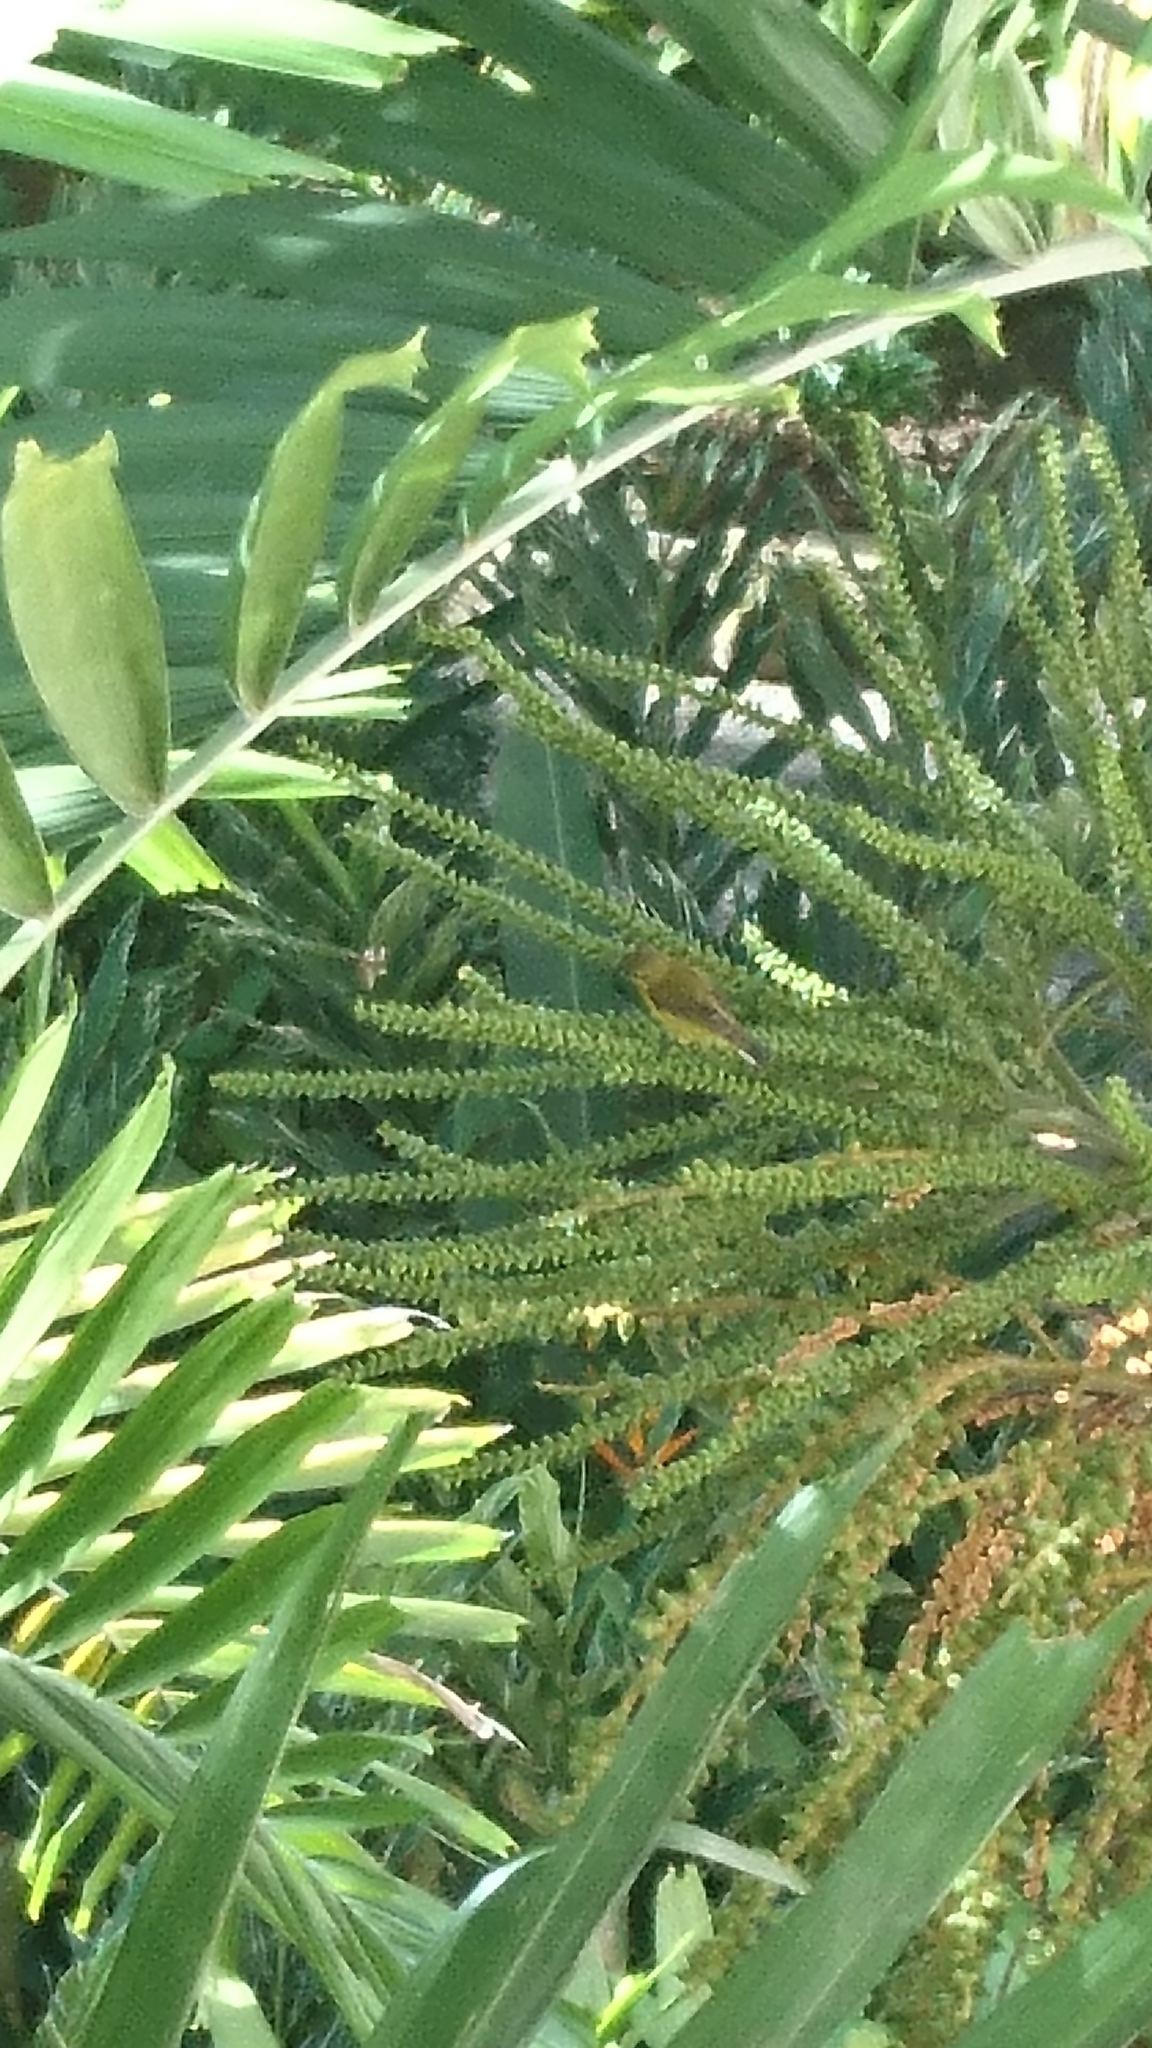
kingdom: Animalia
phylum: Chordata
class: Aves
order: Passeriformes
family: Nectariniidae
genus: Cinnyris
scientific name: Cinnyris
